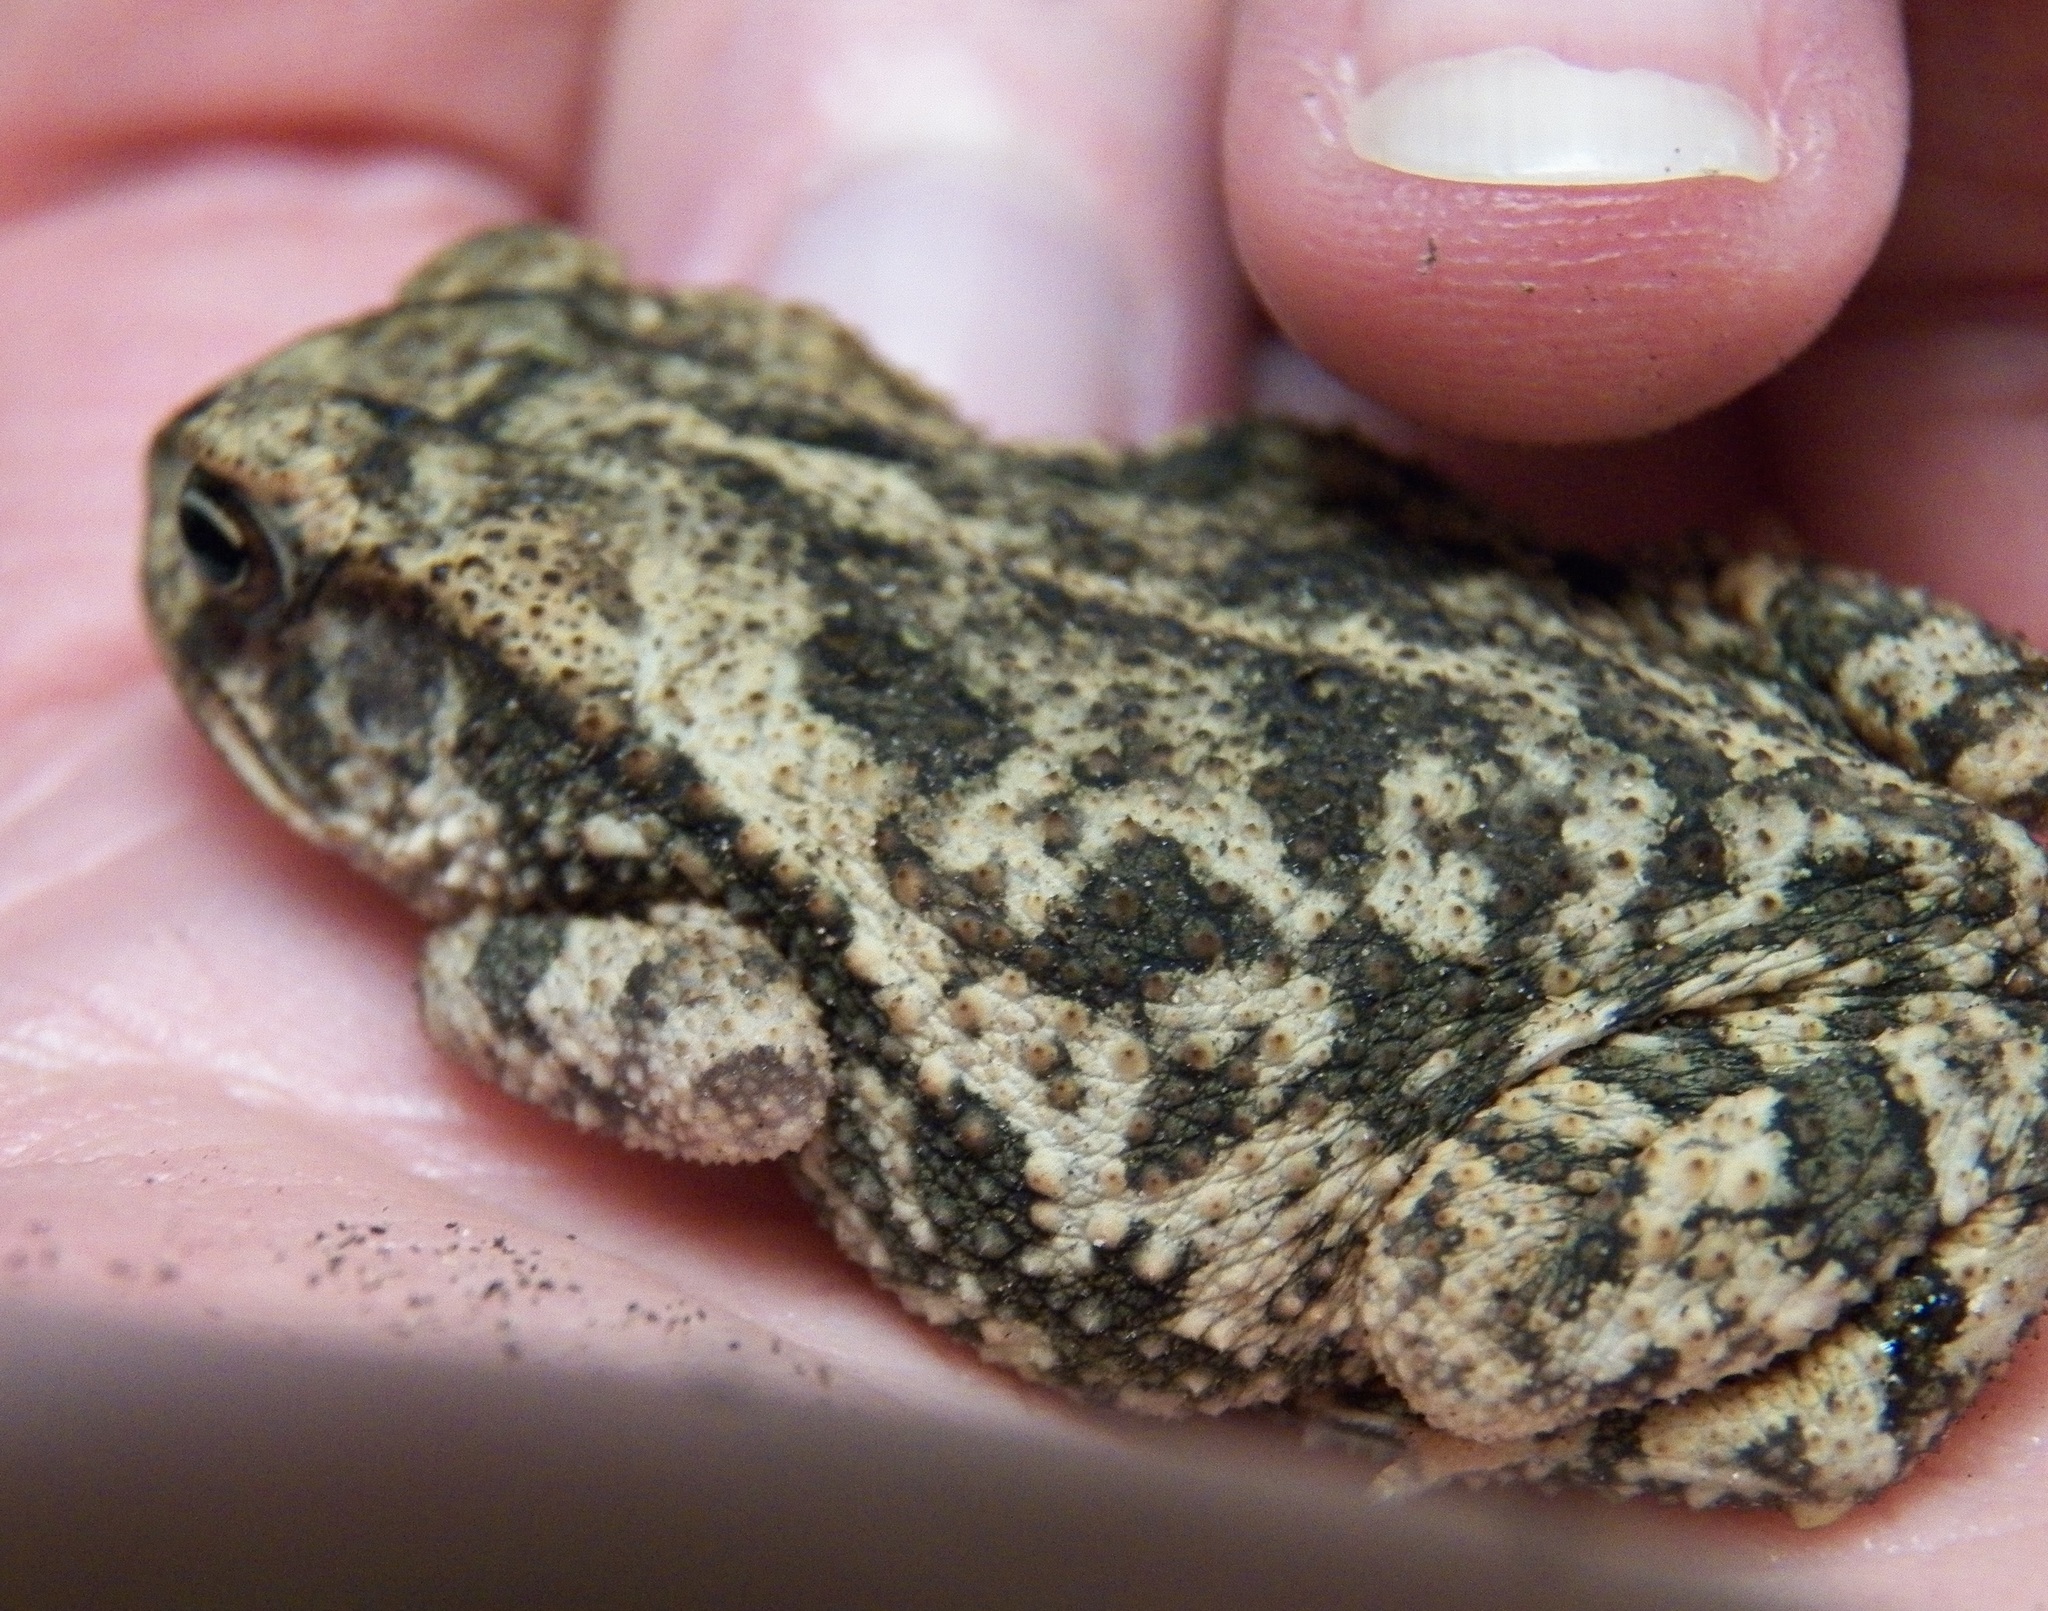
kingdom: Animalia
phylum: Chordata
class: Amphibia
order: Anura
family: Bufonidae
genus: Incilius
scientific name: Incilius nebulifer
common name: Gulf coast toad
